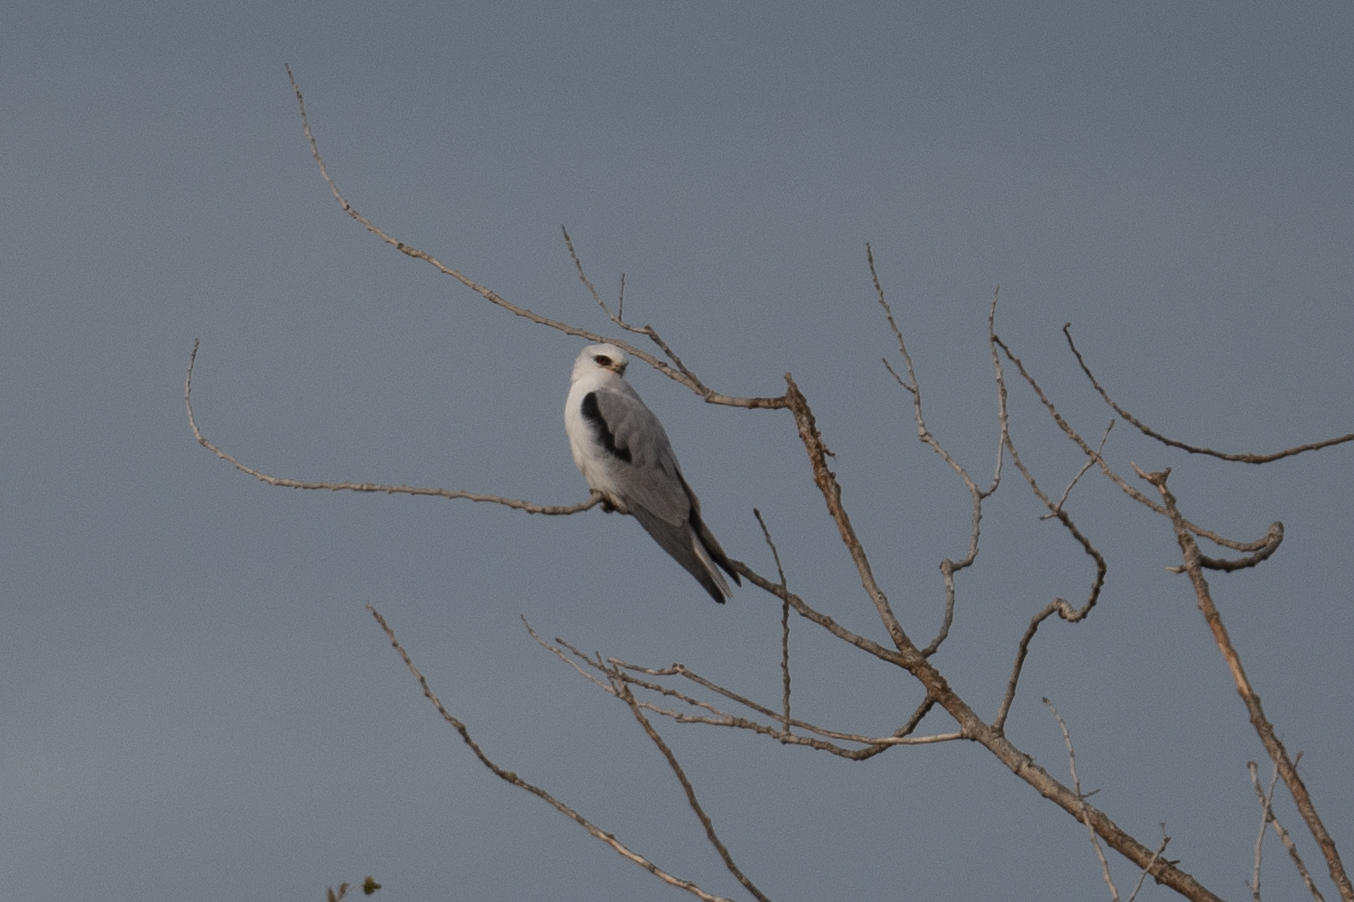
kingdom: Animalia
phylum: Chordata
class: Aves
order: Accipitriformes
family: Accipitridae
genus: Elanus
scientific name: Elanus leucurus
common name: White-tailed kite
